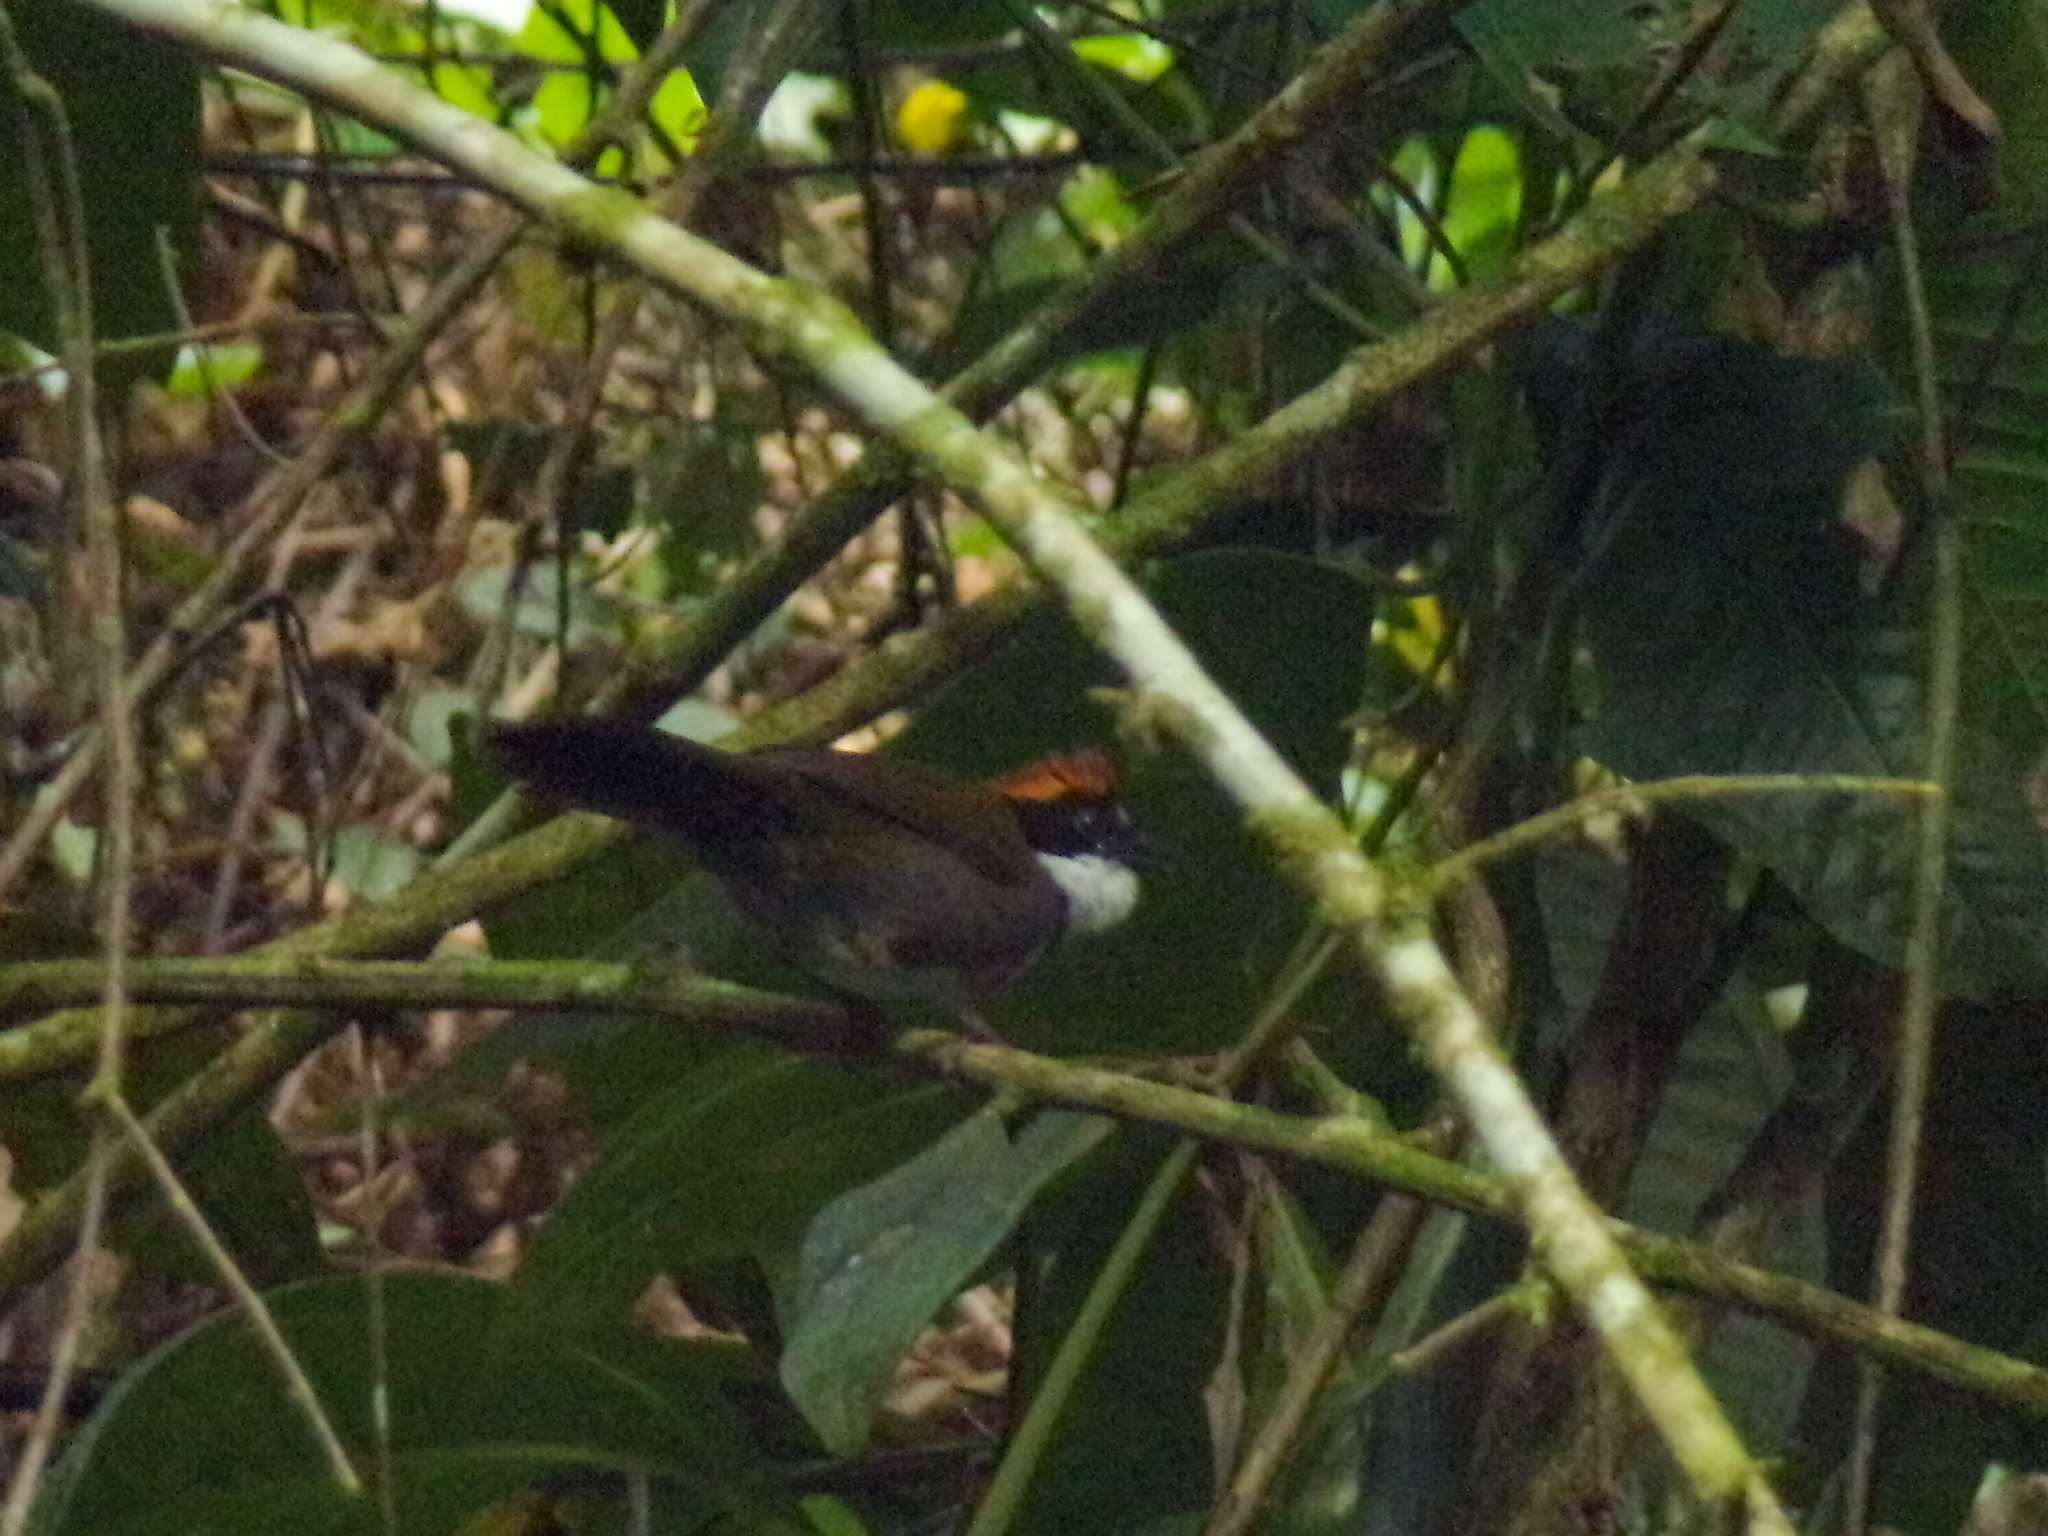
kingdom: Animalia
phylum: Chordata
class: Aves
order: Passeriformes
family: Passerellidae
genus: Arremon
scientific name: Arremon brunneinucha
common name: Chestnut-capped brushfinch
